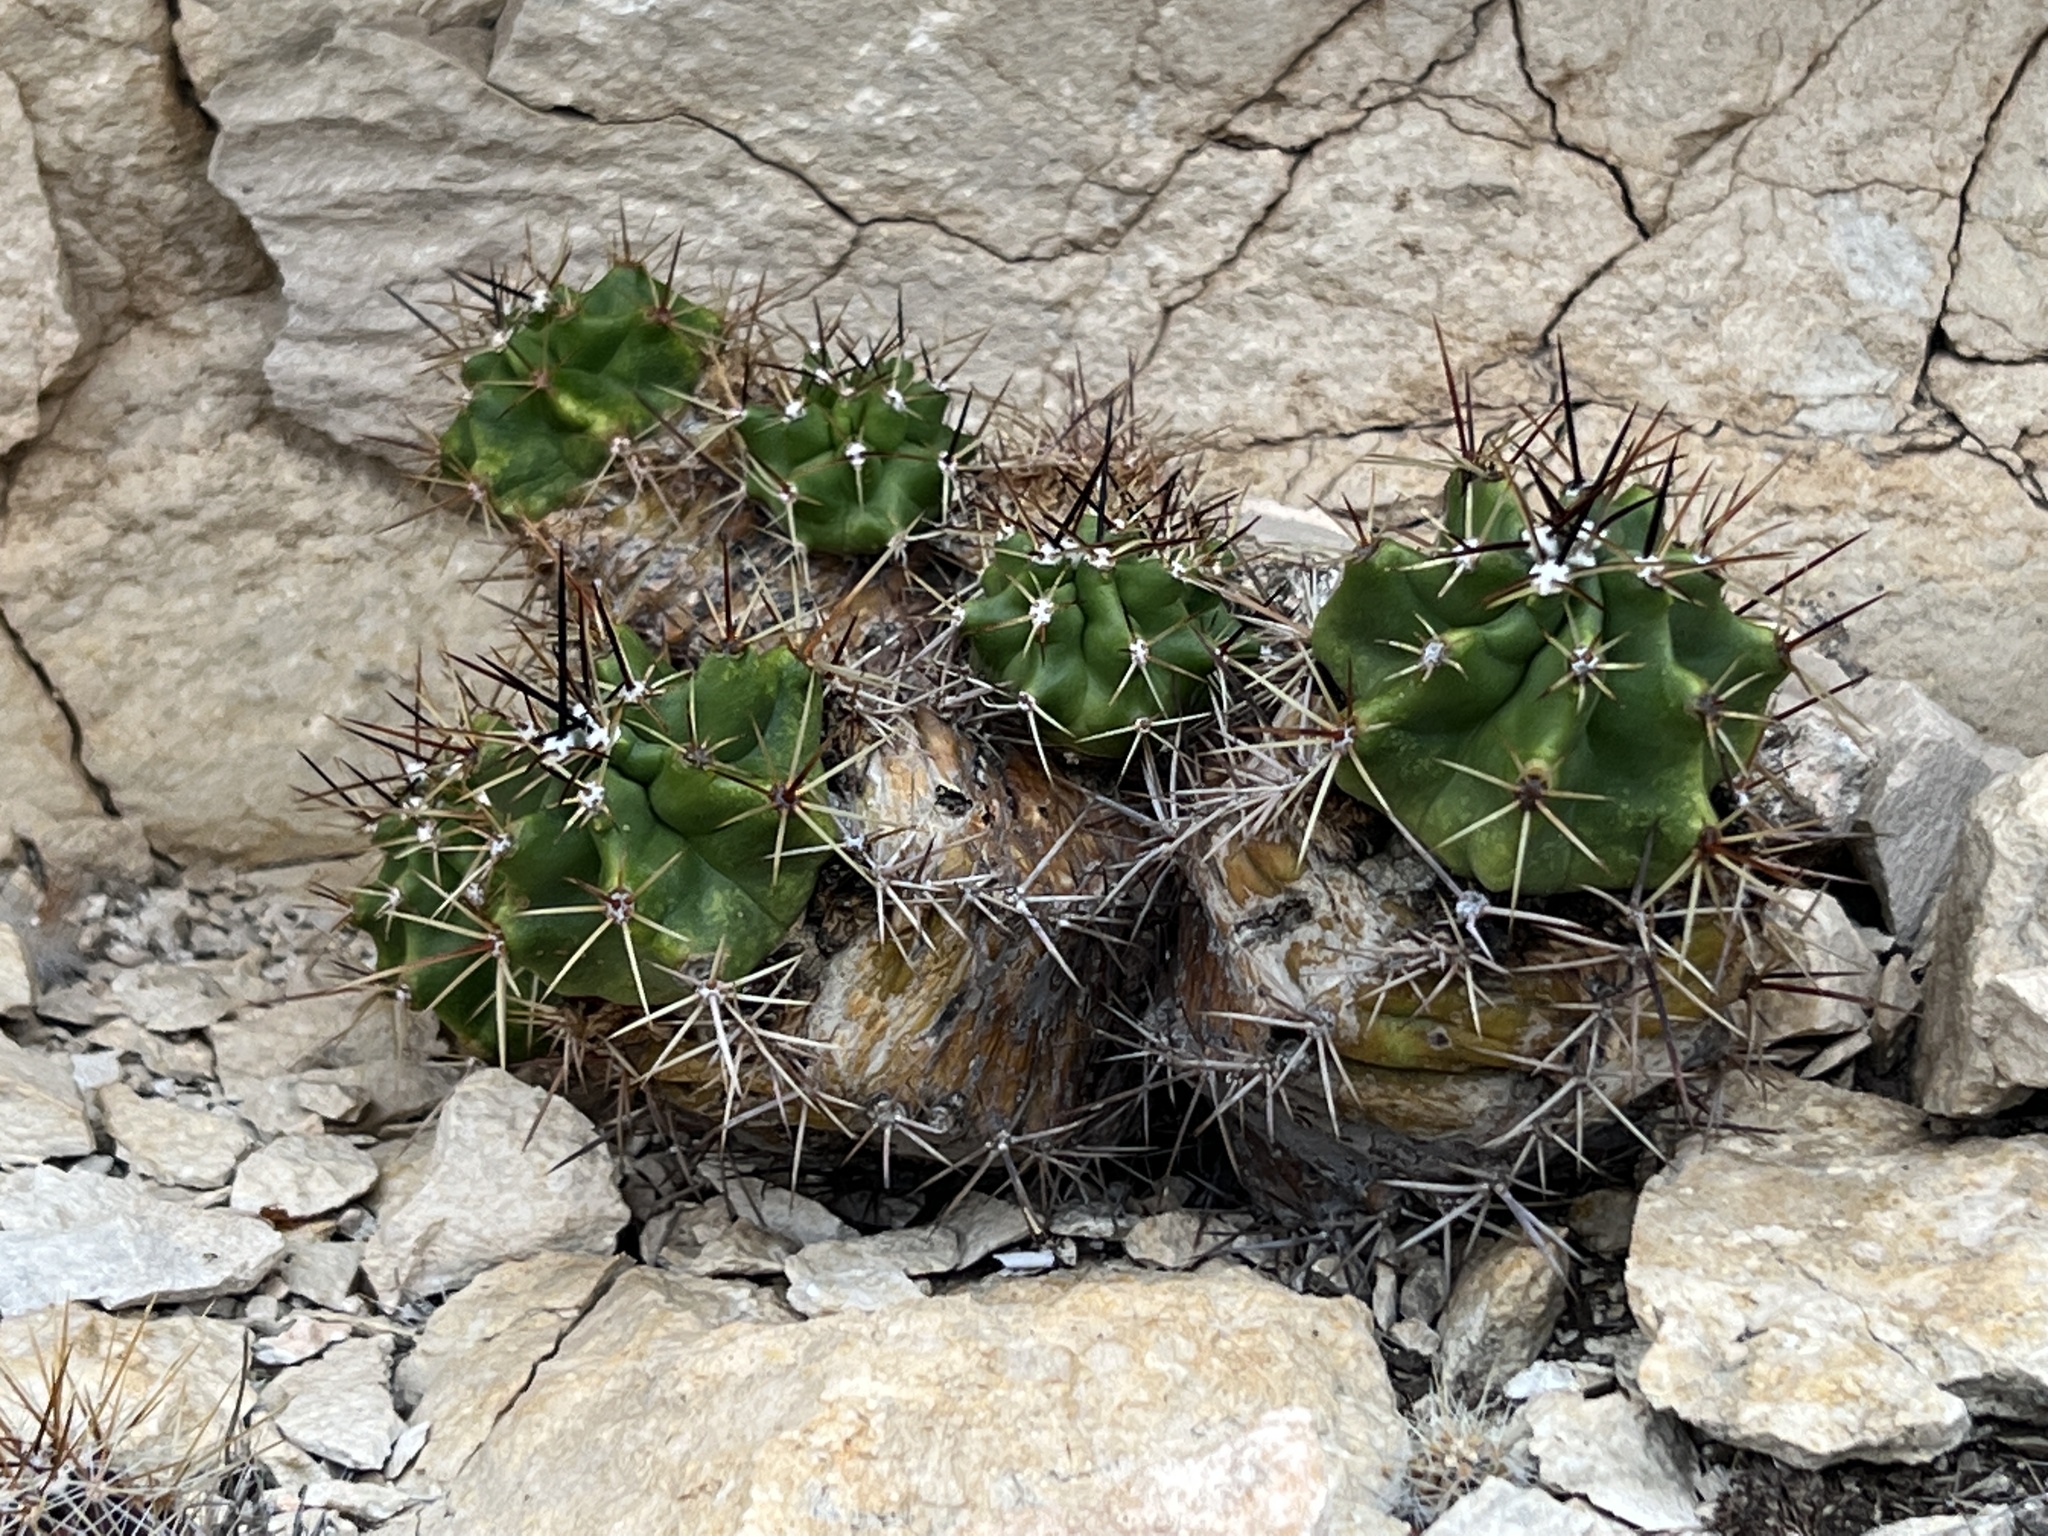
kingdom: Plantae
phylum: Tracheophyta
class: Magnoliopsida
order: Caryophyllales
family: Cactaceae
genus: Echinocereus
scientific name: Echinocereus coccineus
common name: Scarlet hedgehog cactus
